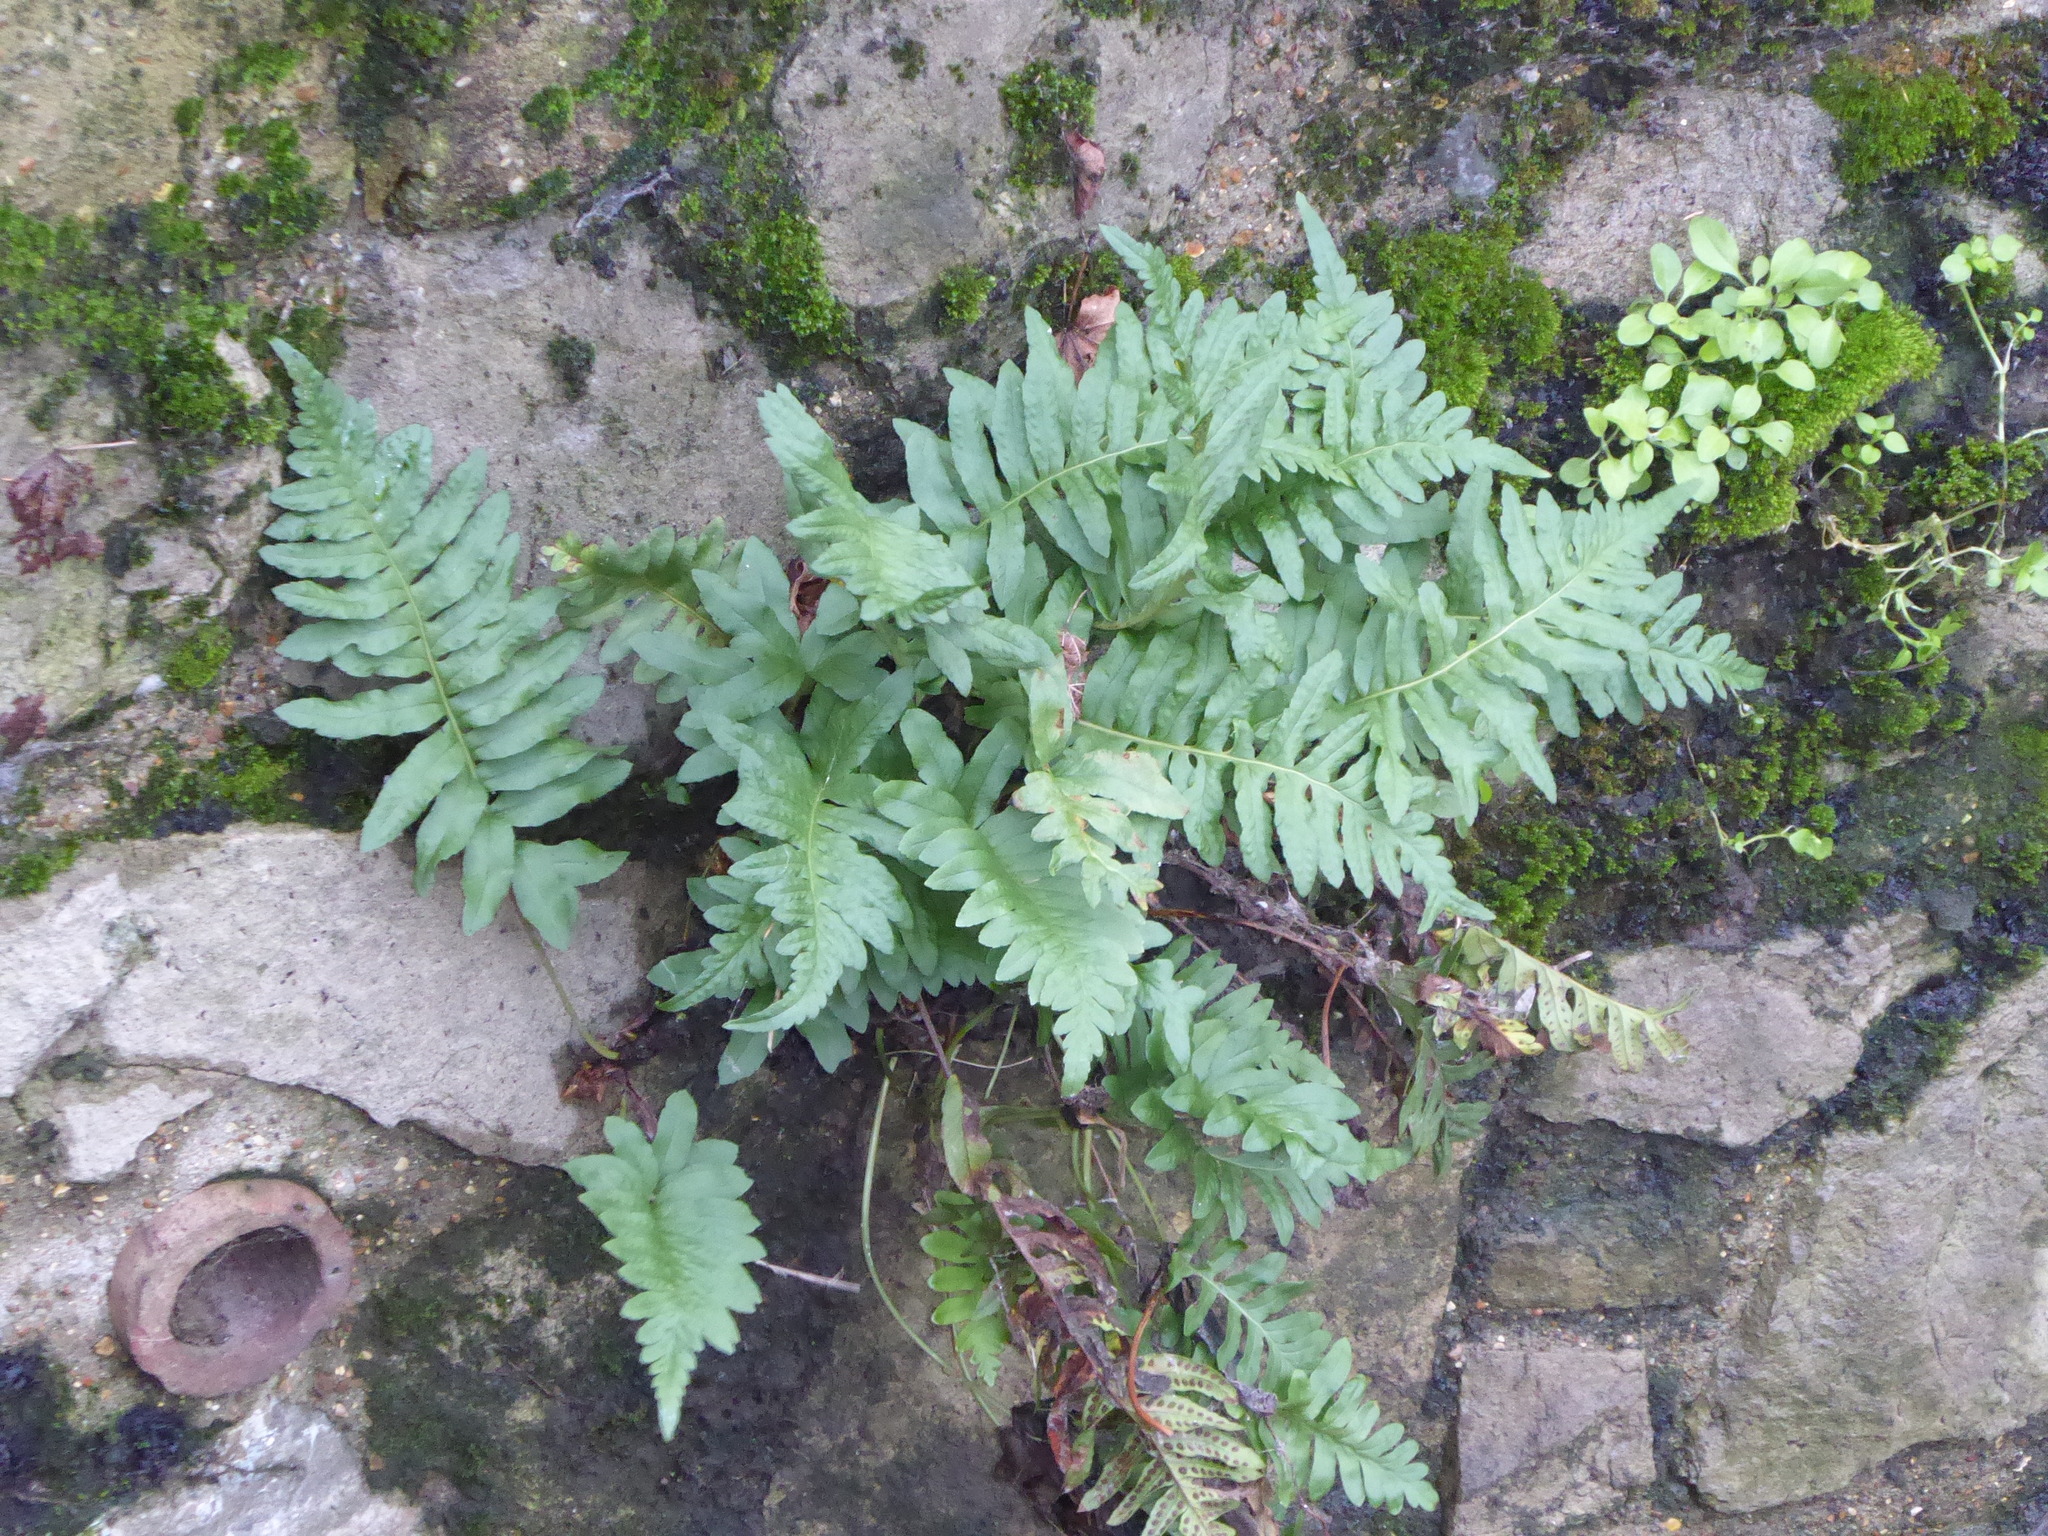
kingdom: Plantae
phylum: Tracheophyta
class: Polypodiopsida
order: Polypodiales
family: Polypodiaceae
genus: Polypodium
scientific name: Polypodium
